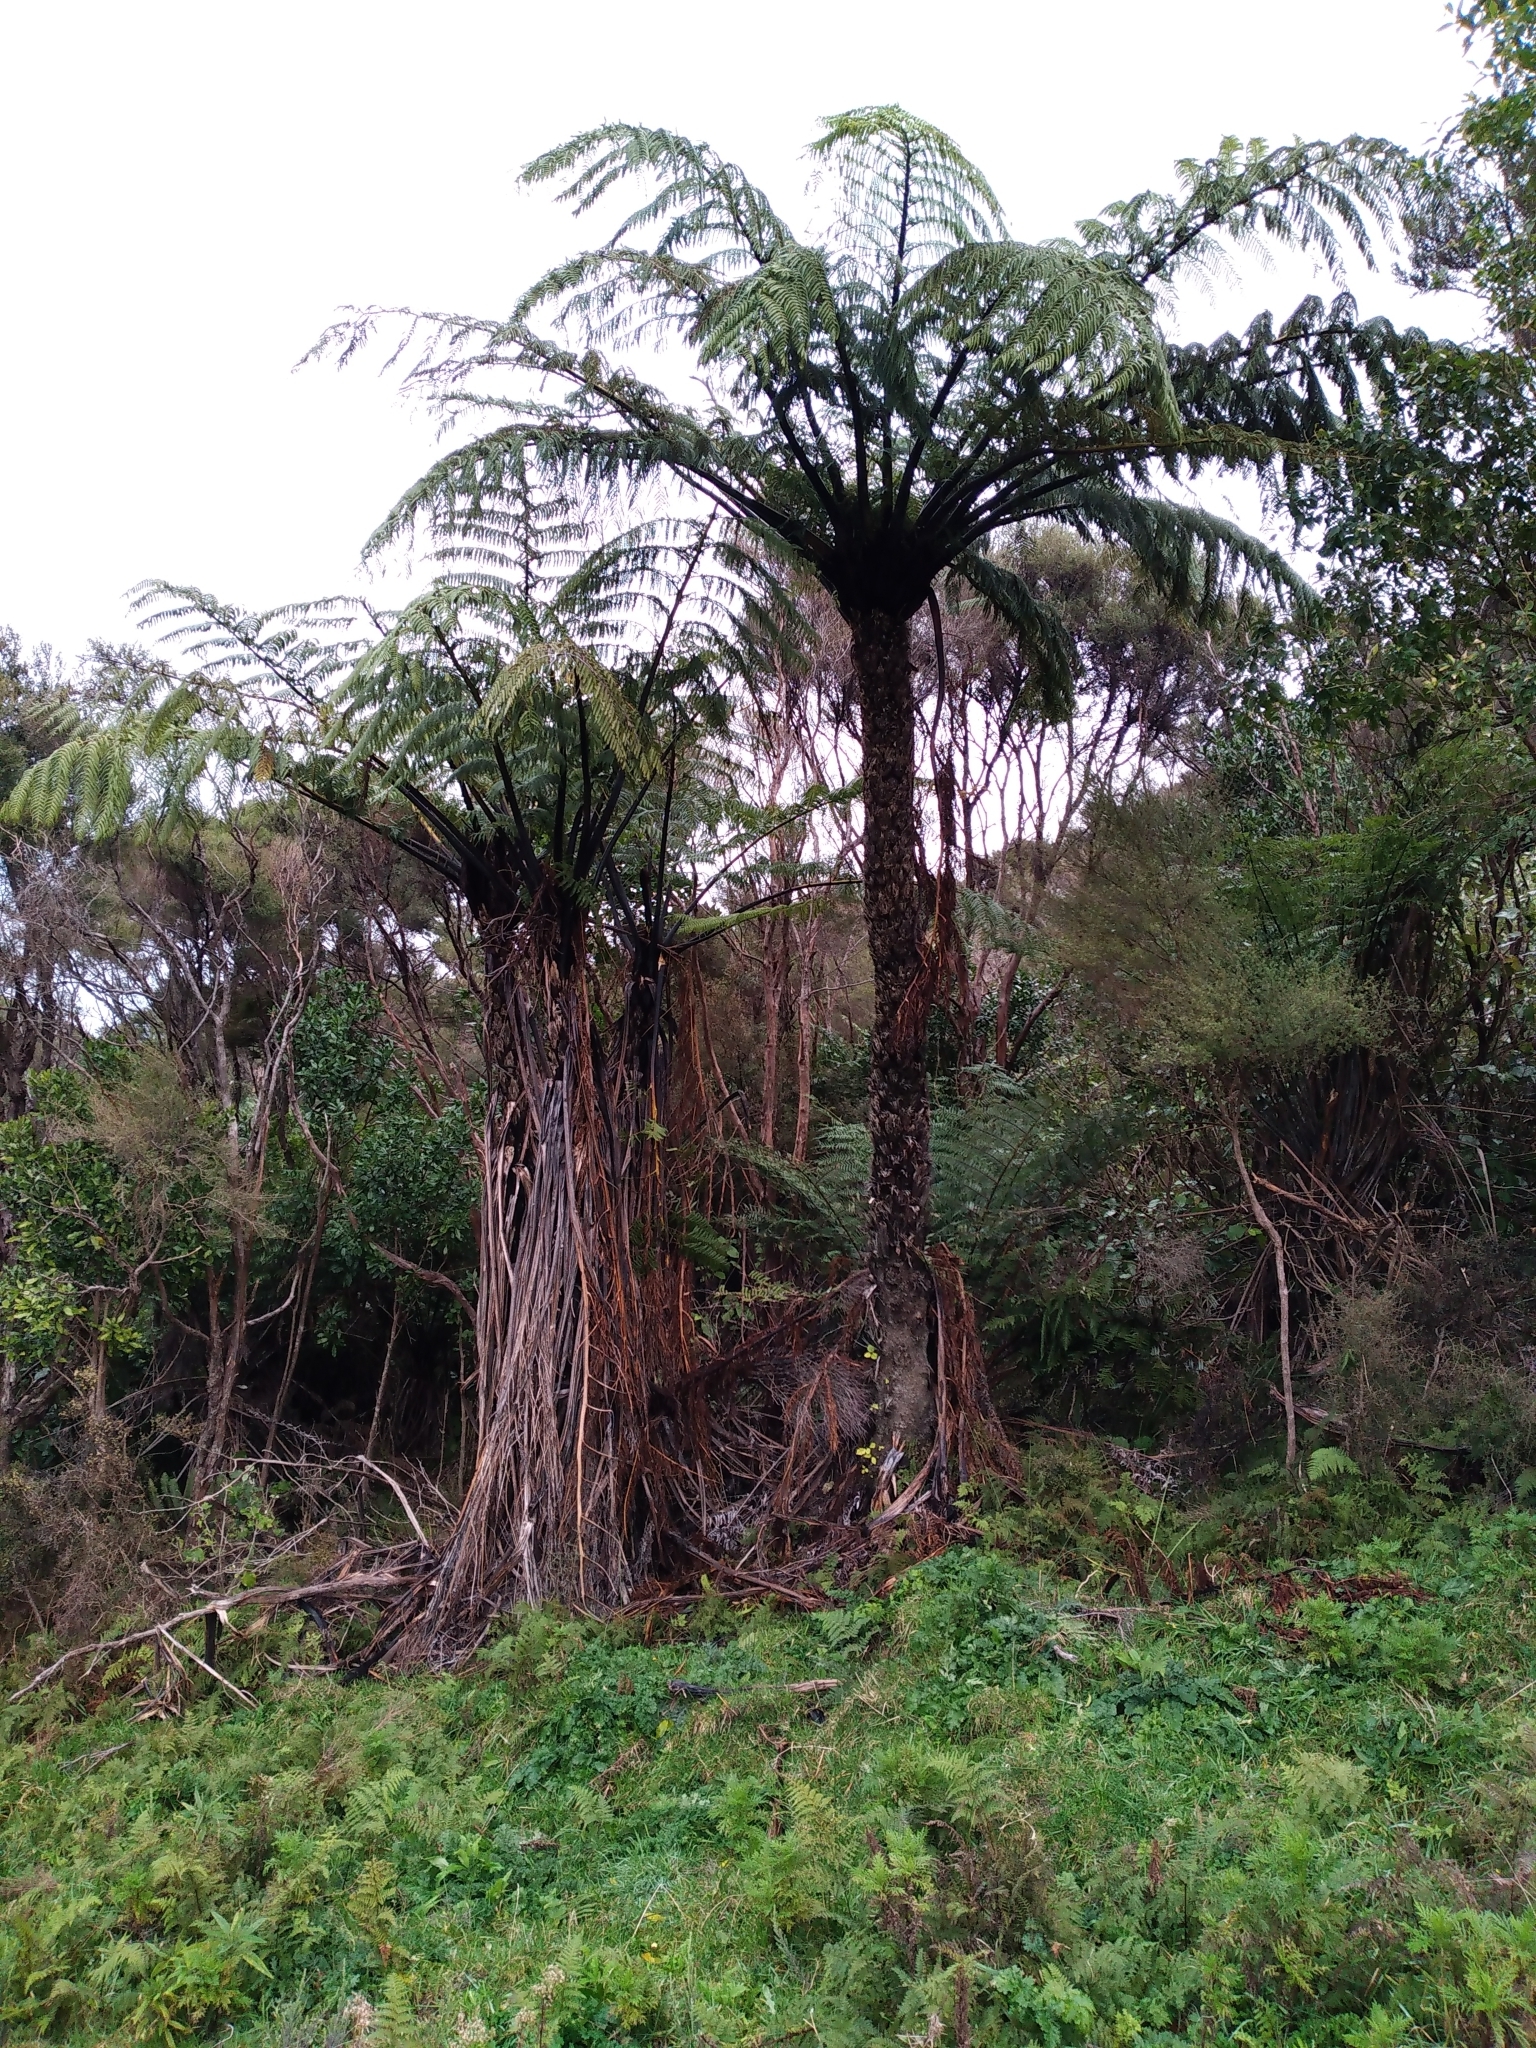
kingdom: Plantae
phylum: Tracheophyta
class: Polypodiopsida
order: Cyatheales
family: Cyatheaceae
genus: Sphaeropteris
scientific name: Sphaeropteris medullaris
